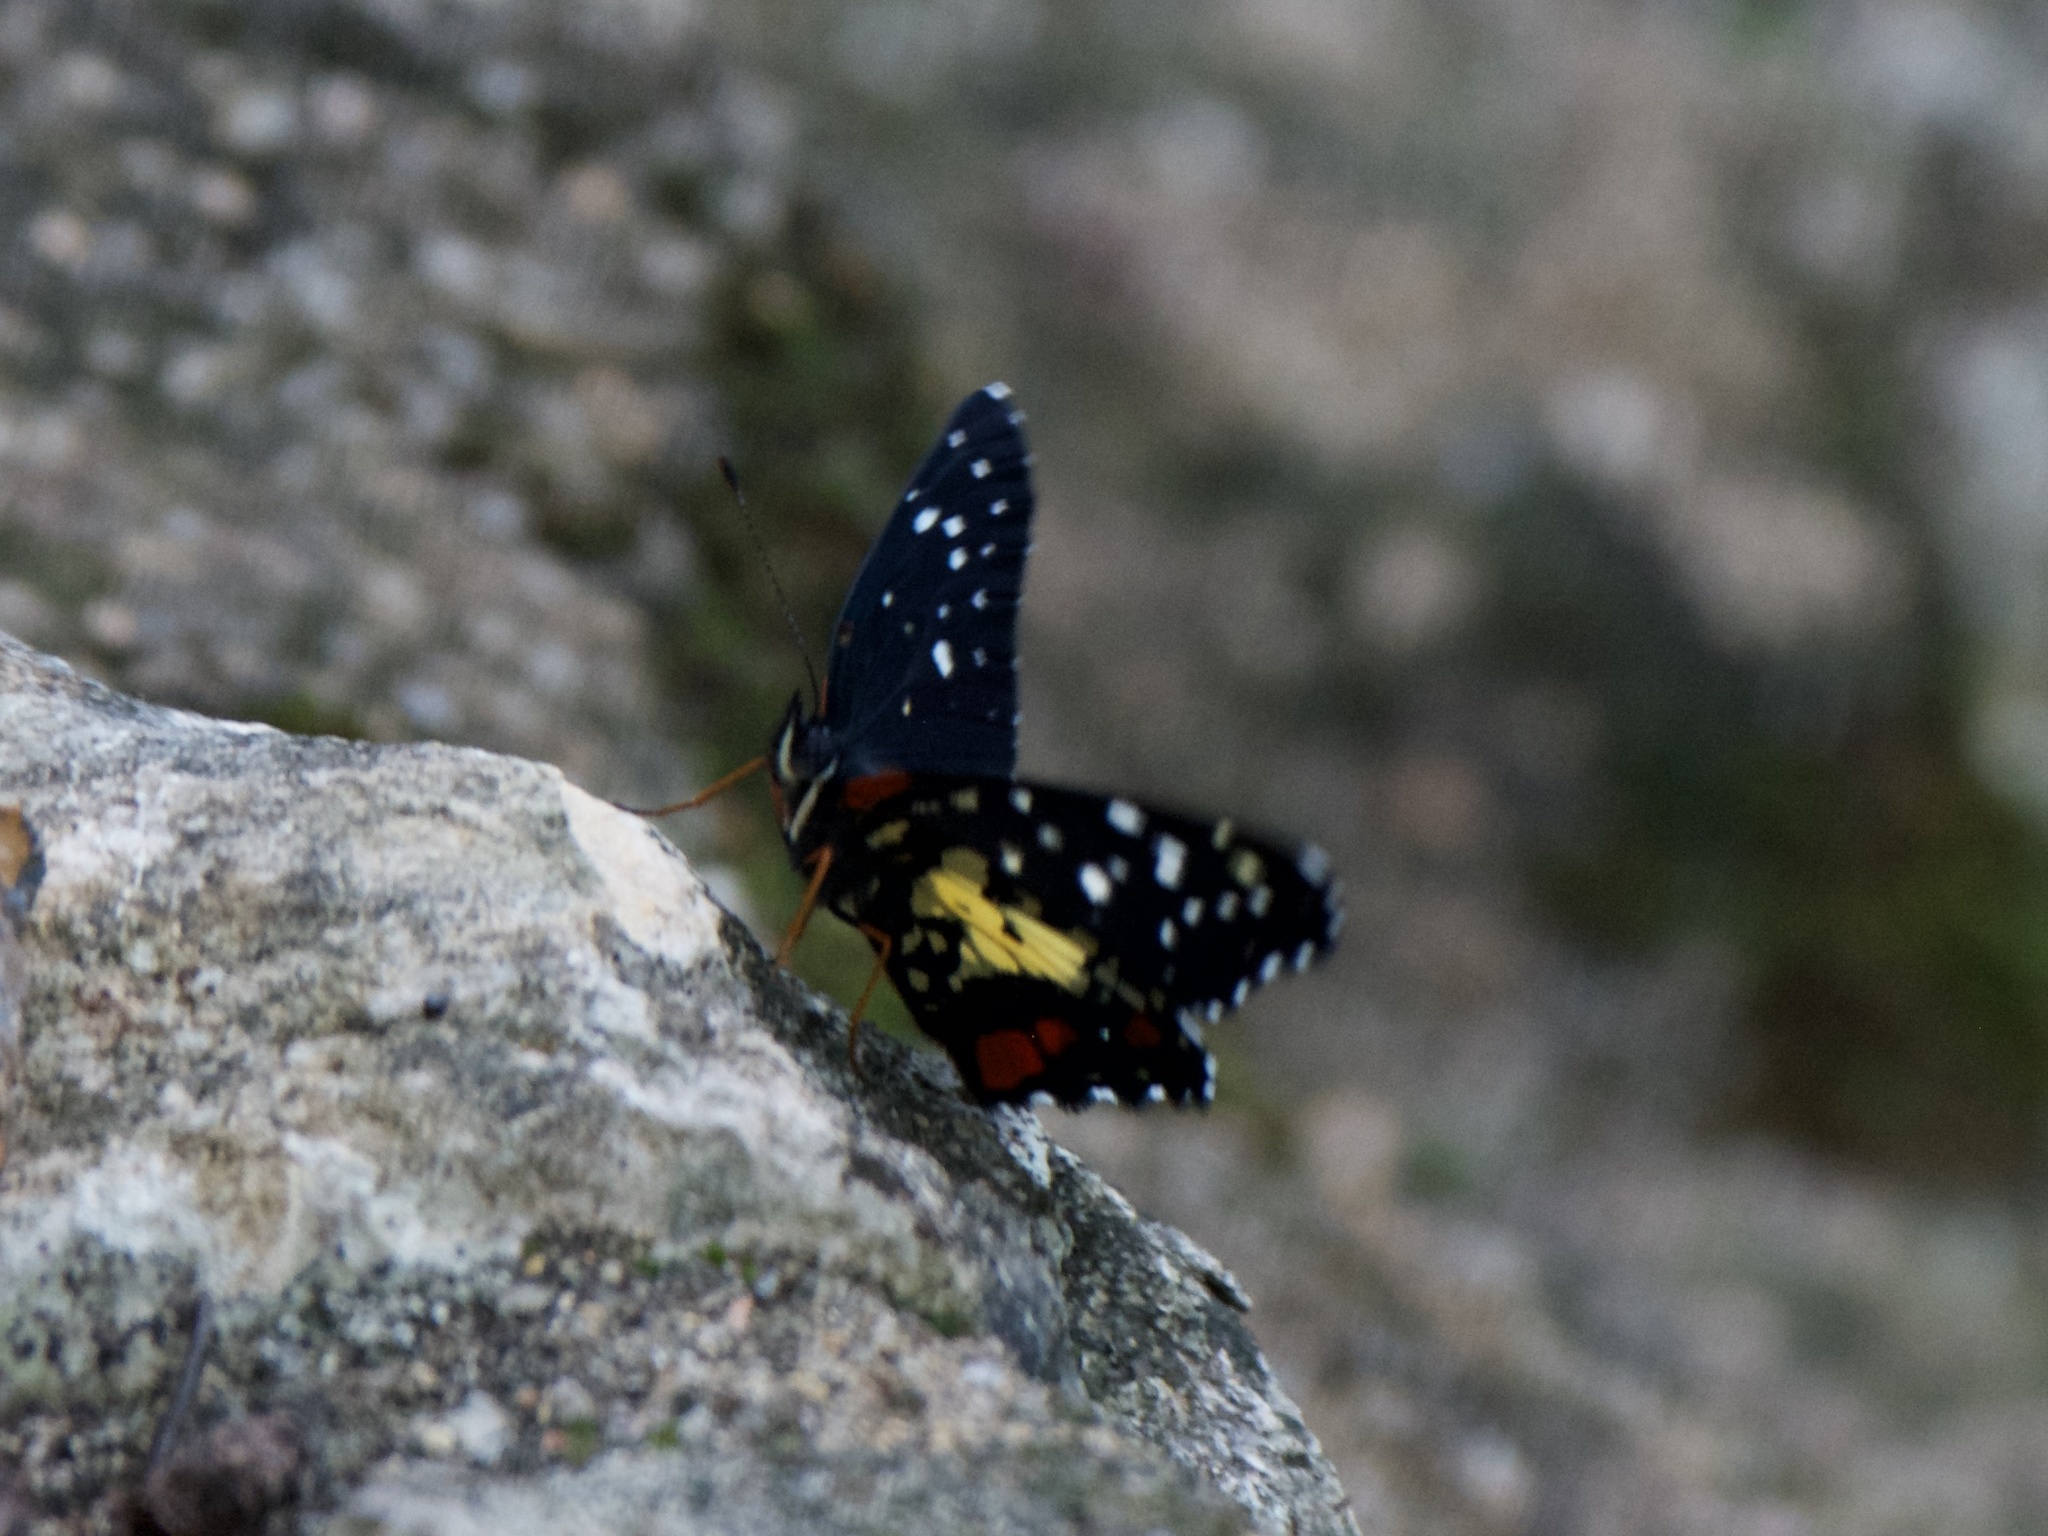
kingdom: Animalia
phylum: Arthropoda
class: Insecta
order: Lepidoptera
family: Nymphalidae
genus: Chlosyne
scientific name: Chlosyne erodyle
